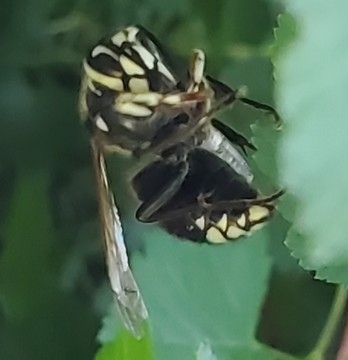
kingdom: Animalia
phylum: Arthropoda
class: Insecta
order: Hymenoptera
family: Vespidae
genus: Dolichovespula
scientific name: Dolichovespula maculata
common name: Bald-faced hornet
